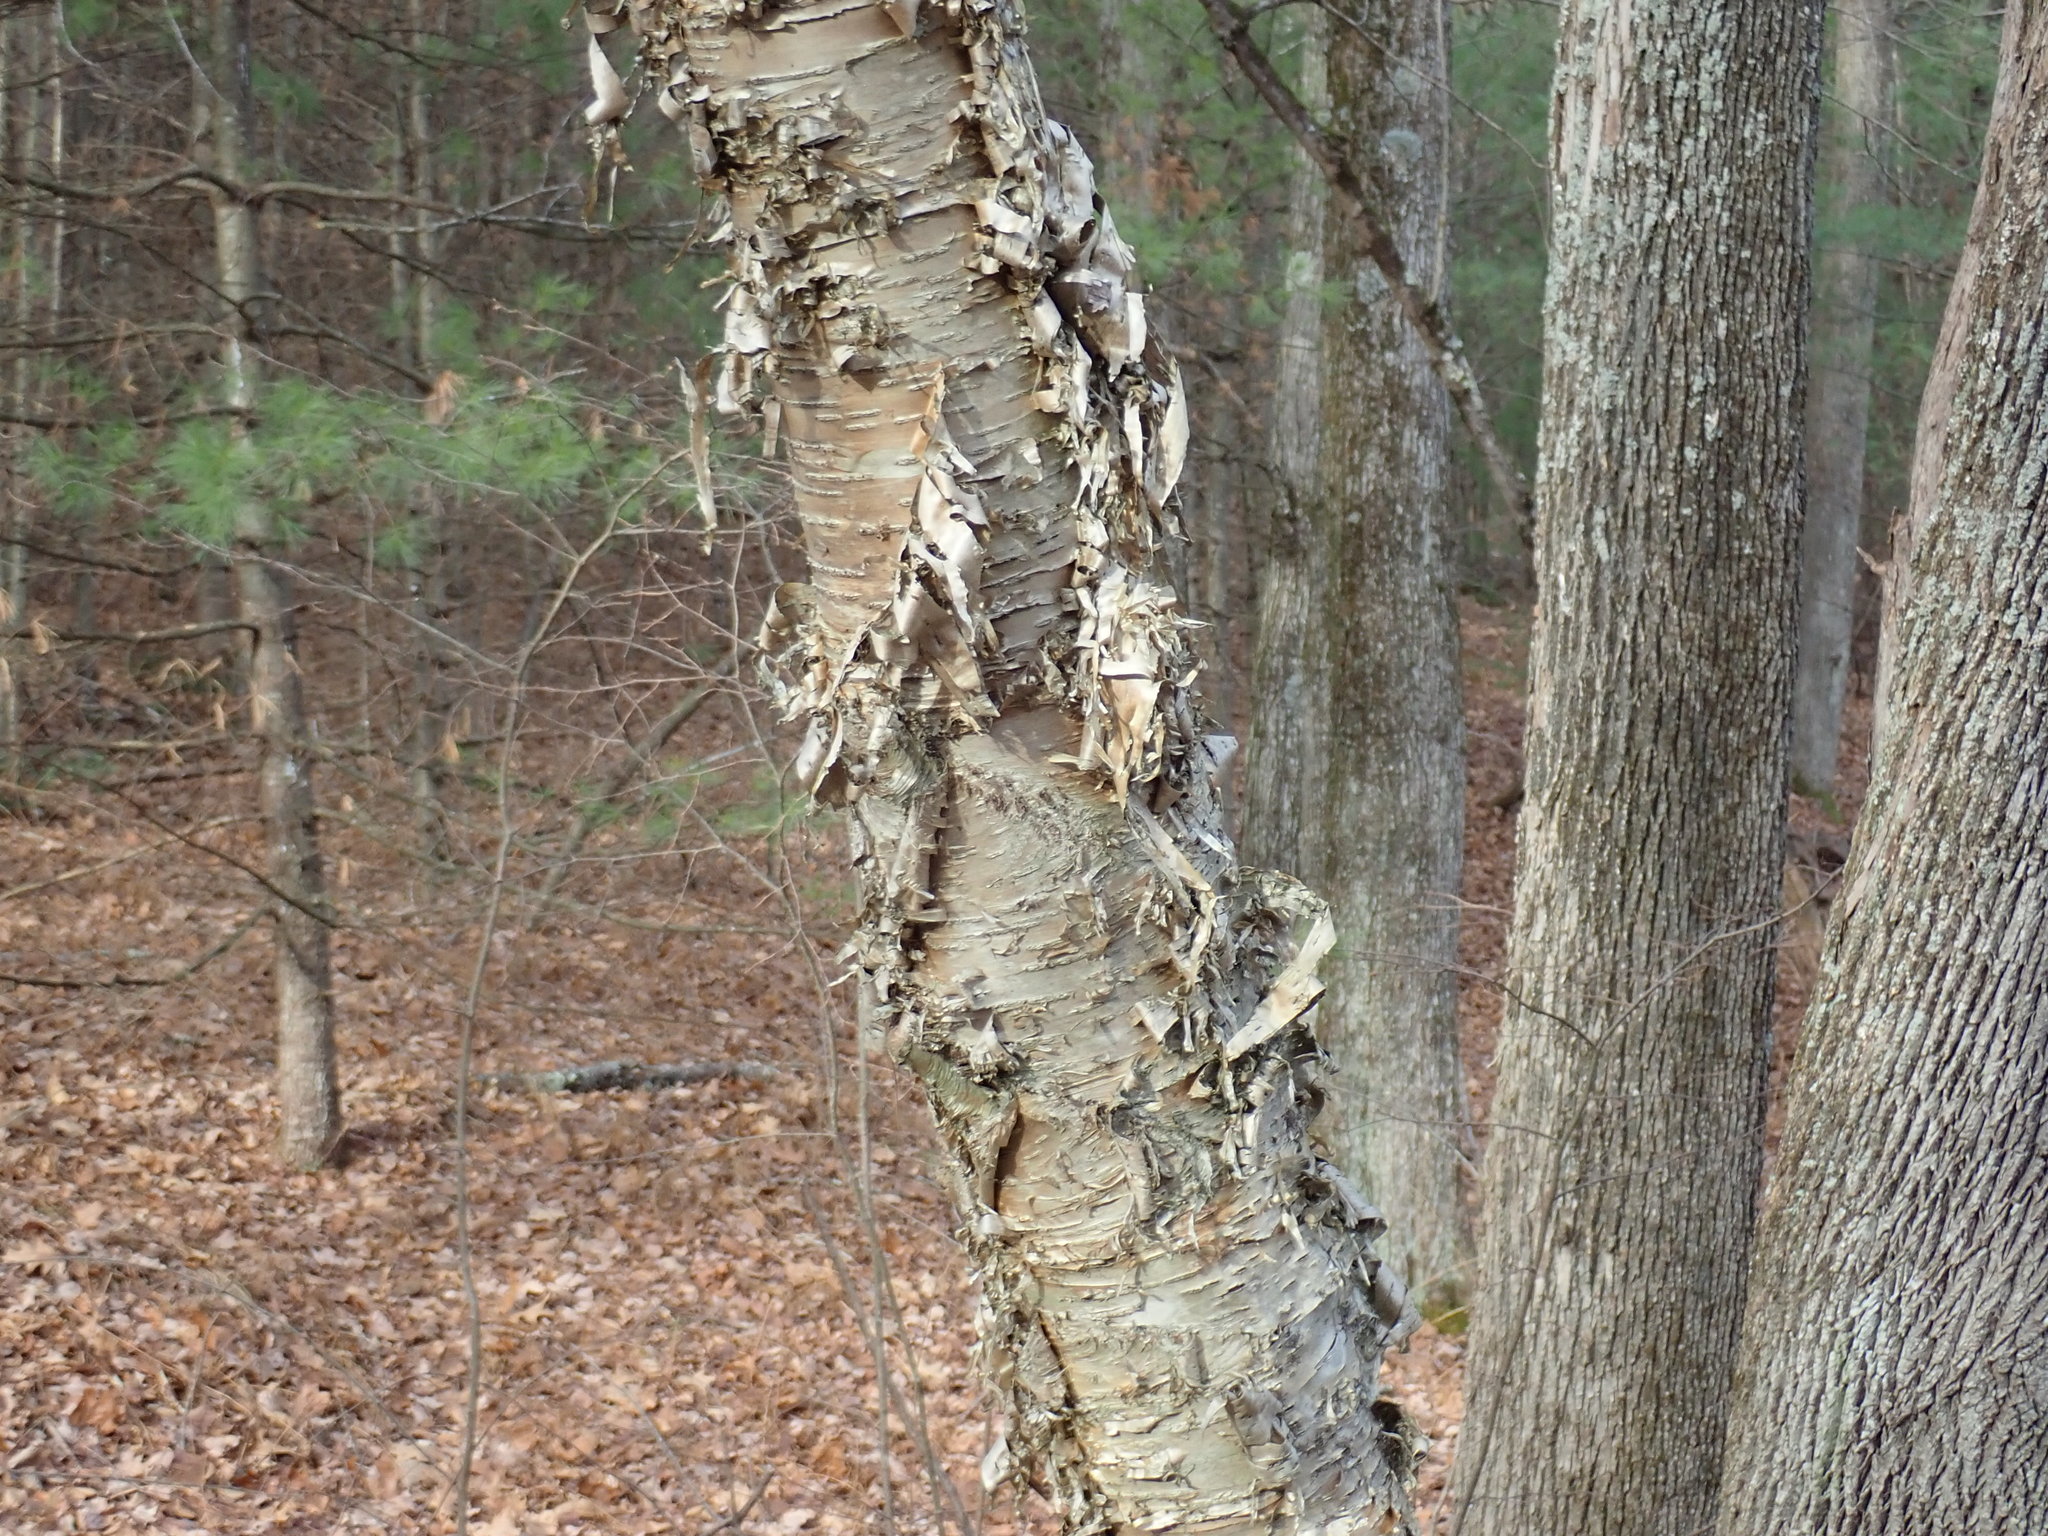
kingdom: Plantae
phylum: Tracheophyta
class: Magnoliopsida
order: Fagales
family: Betulaceae
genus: Betula
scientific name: Betula alleghaniensis
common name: Yellow birch
